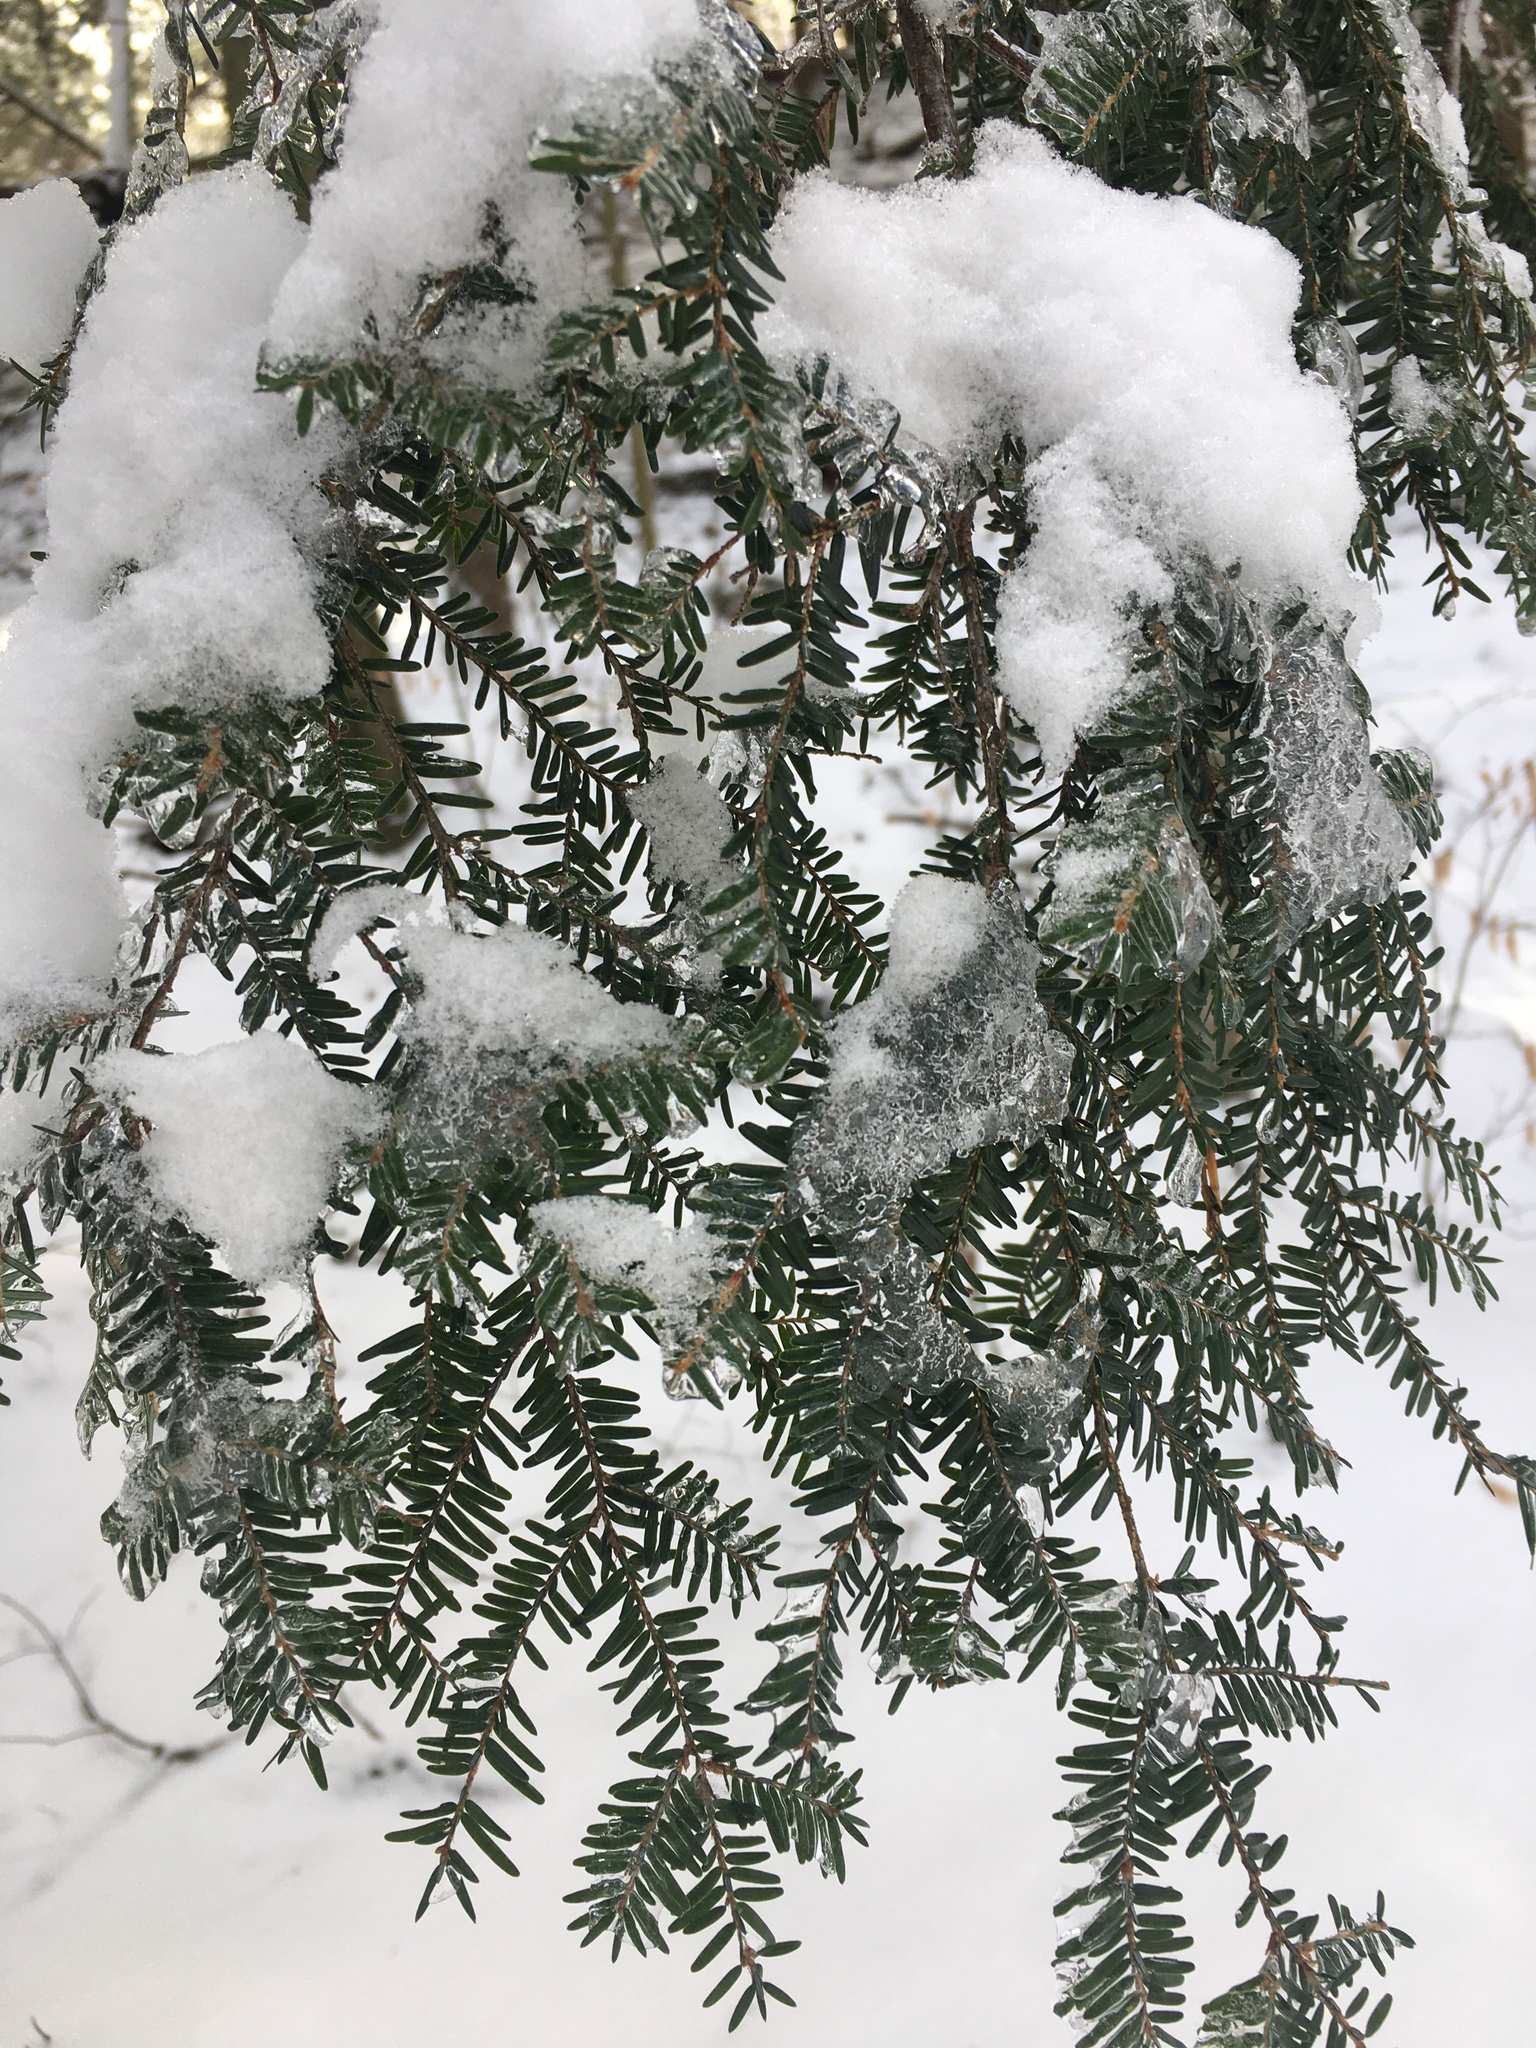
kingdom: Plantae
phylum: Tracheophyta
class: Pinopsida
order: Pinales
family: Pinaceae
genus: Tsuga
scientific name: Tsuga canadensis
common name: Eastern hemlock
